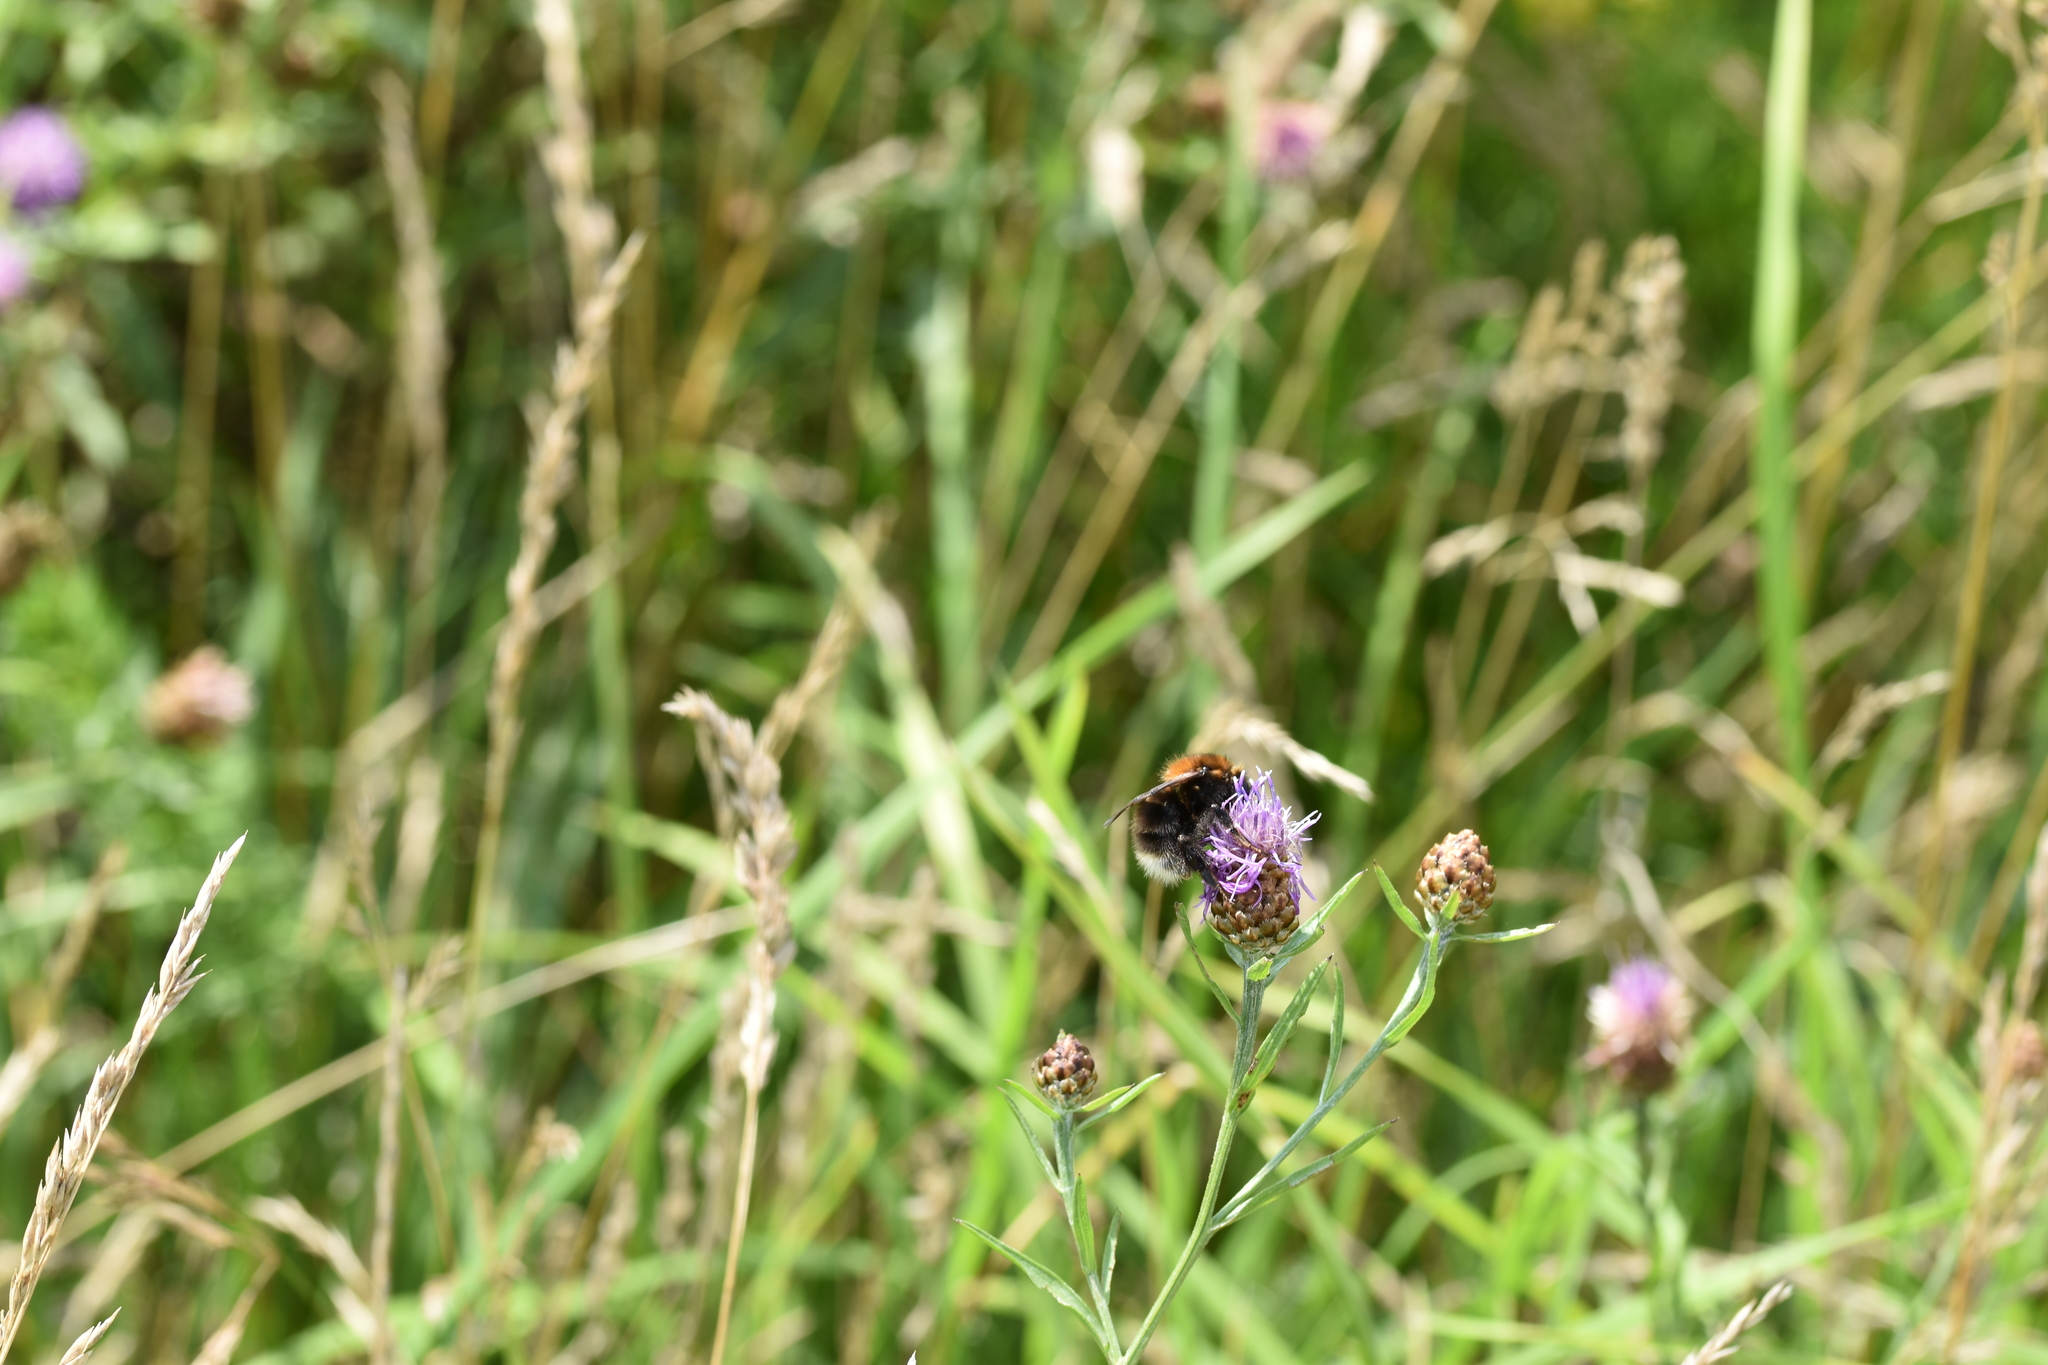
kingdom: Animalia
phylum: Arthropoda
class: Insecta
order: Hymenoptera
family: Apidae
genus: Bombus
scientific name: Bombus hypnorum
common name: New garden bumblebee
